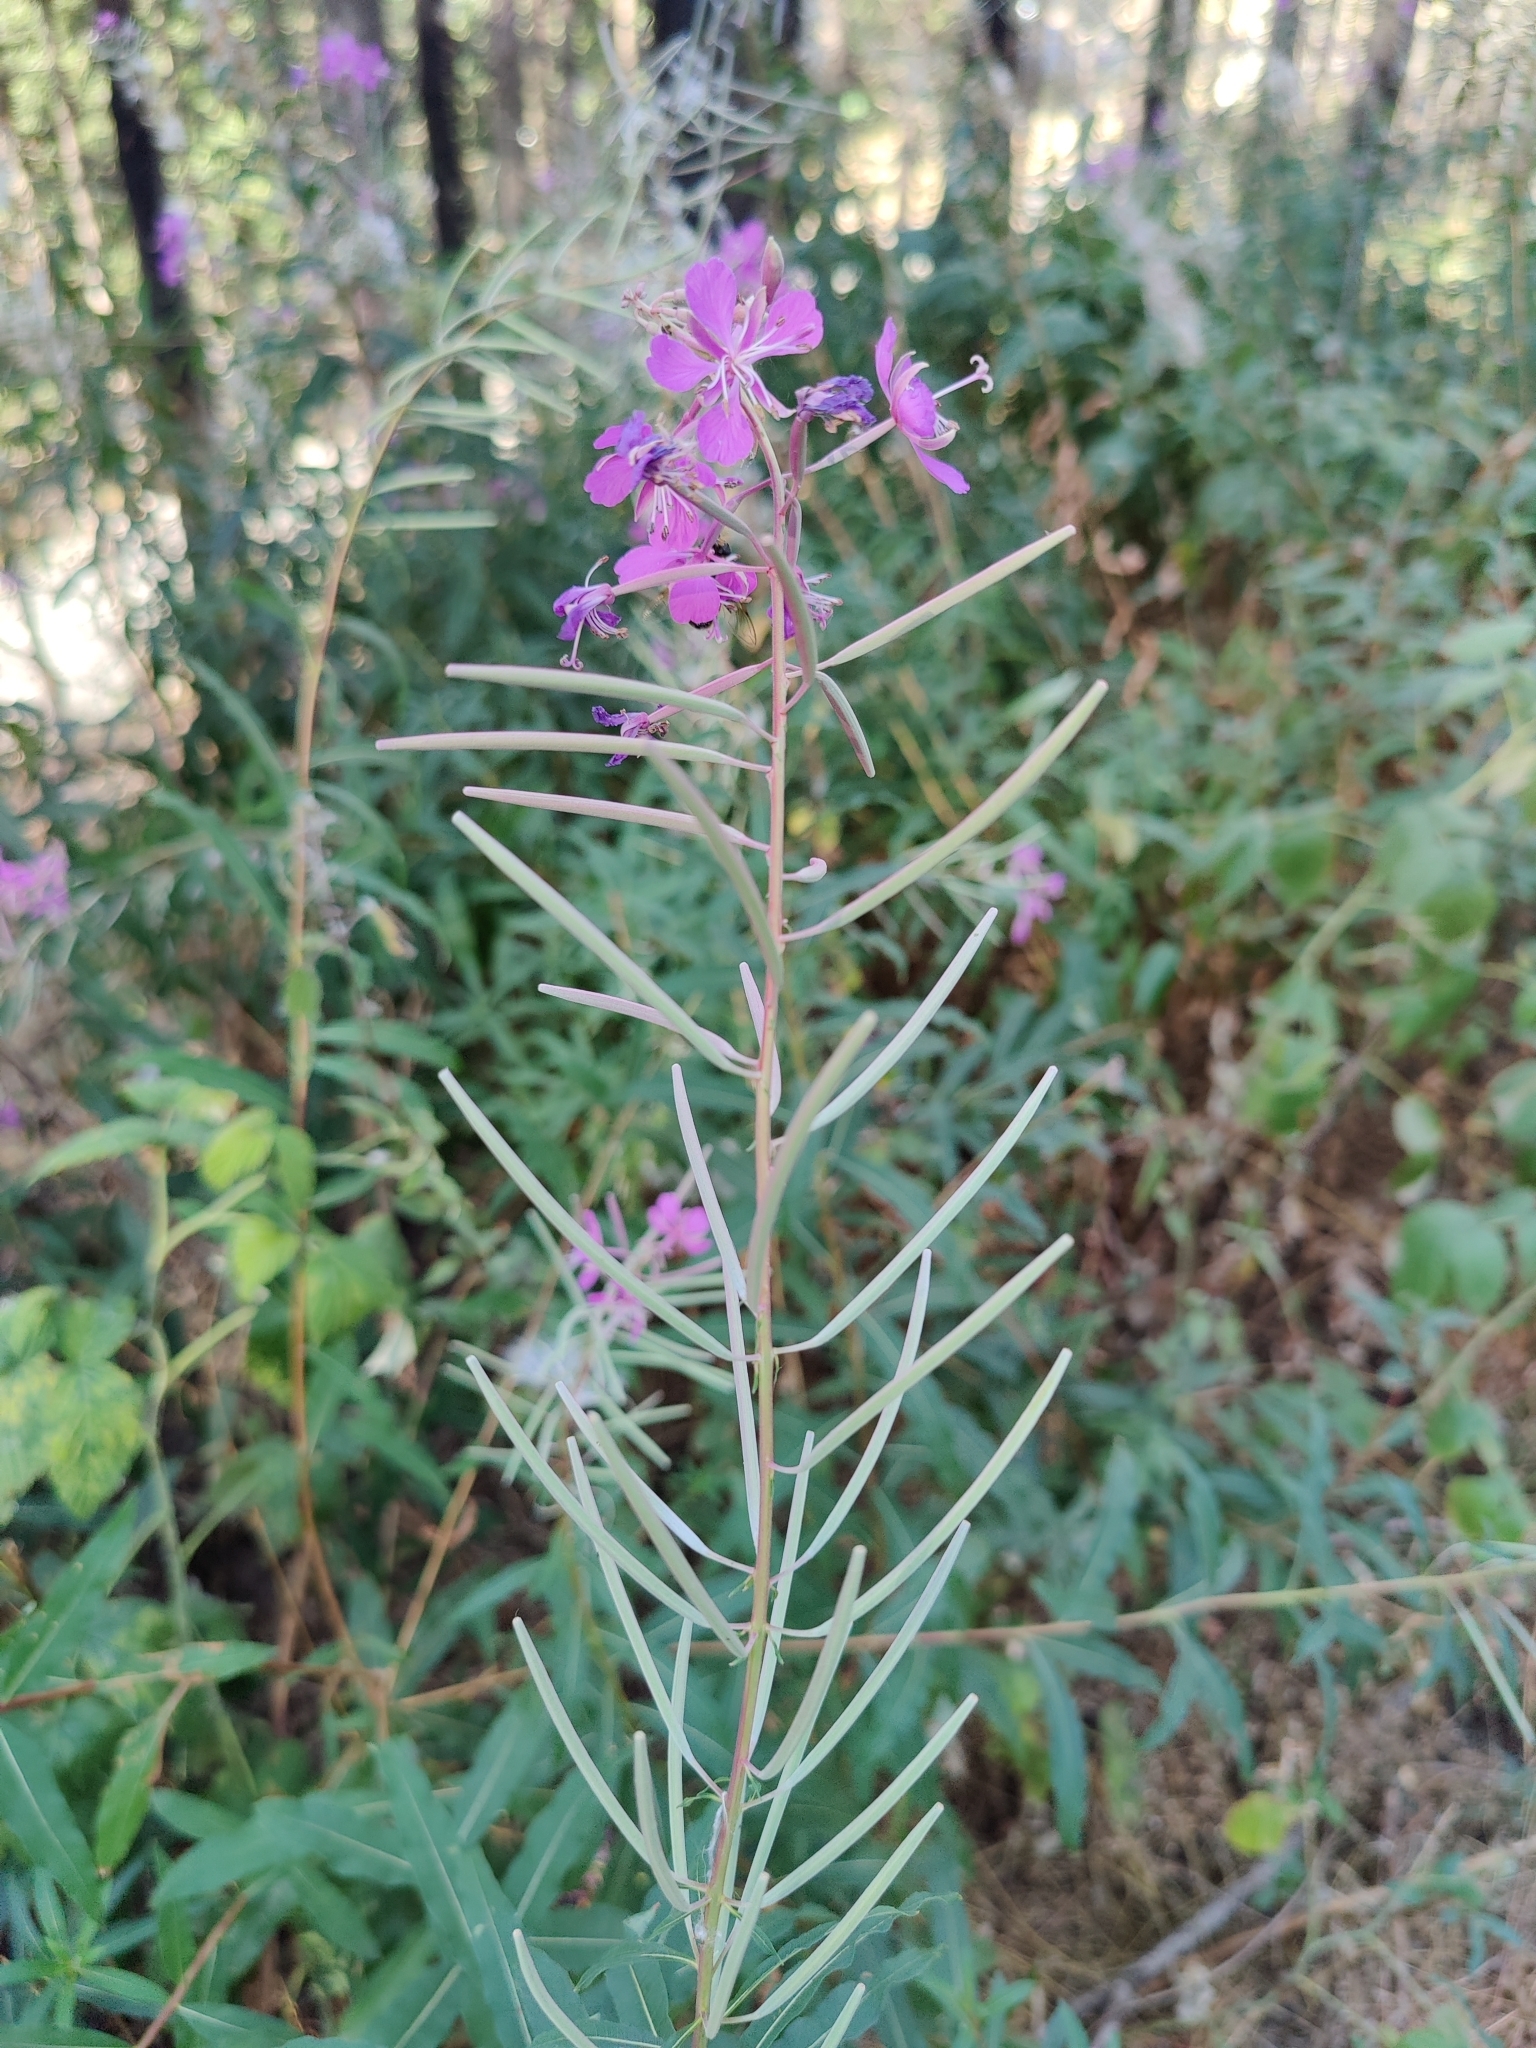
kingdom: Plantae
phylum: Tracheophyta
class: Magnoliopsida
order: Myrtales
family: Onagraceae
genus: Chamaenerion
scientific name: Chamaenerion angustifolium
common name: Fireweed
